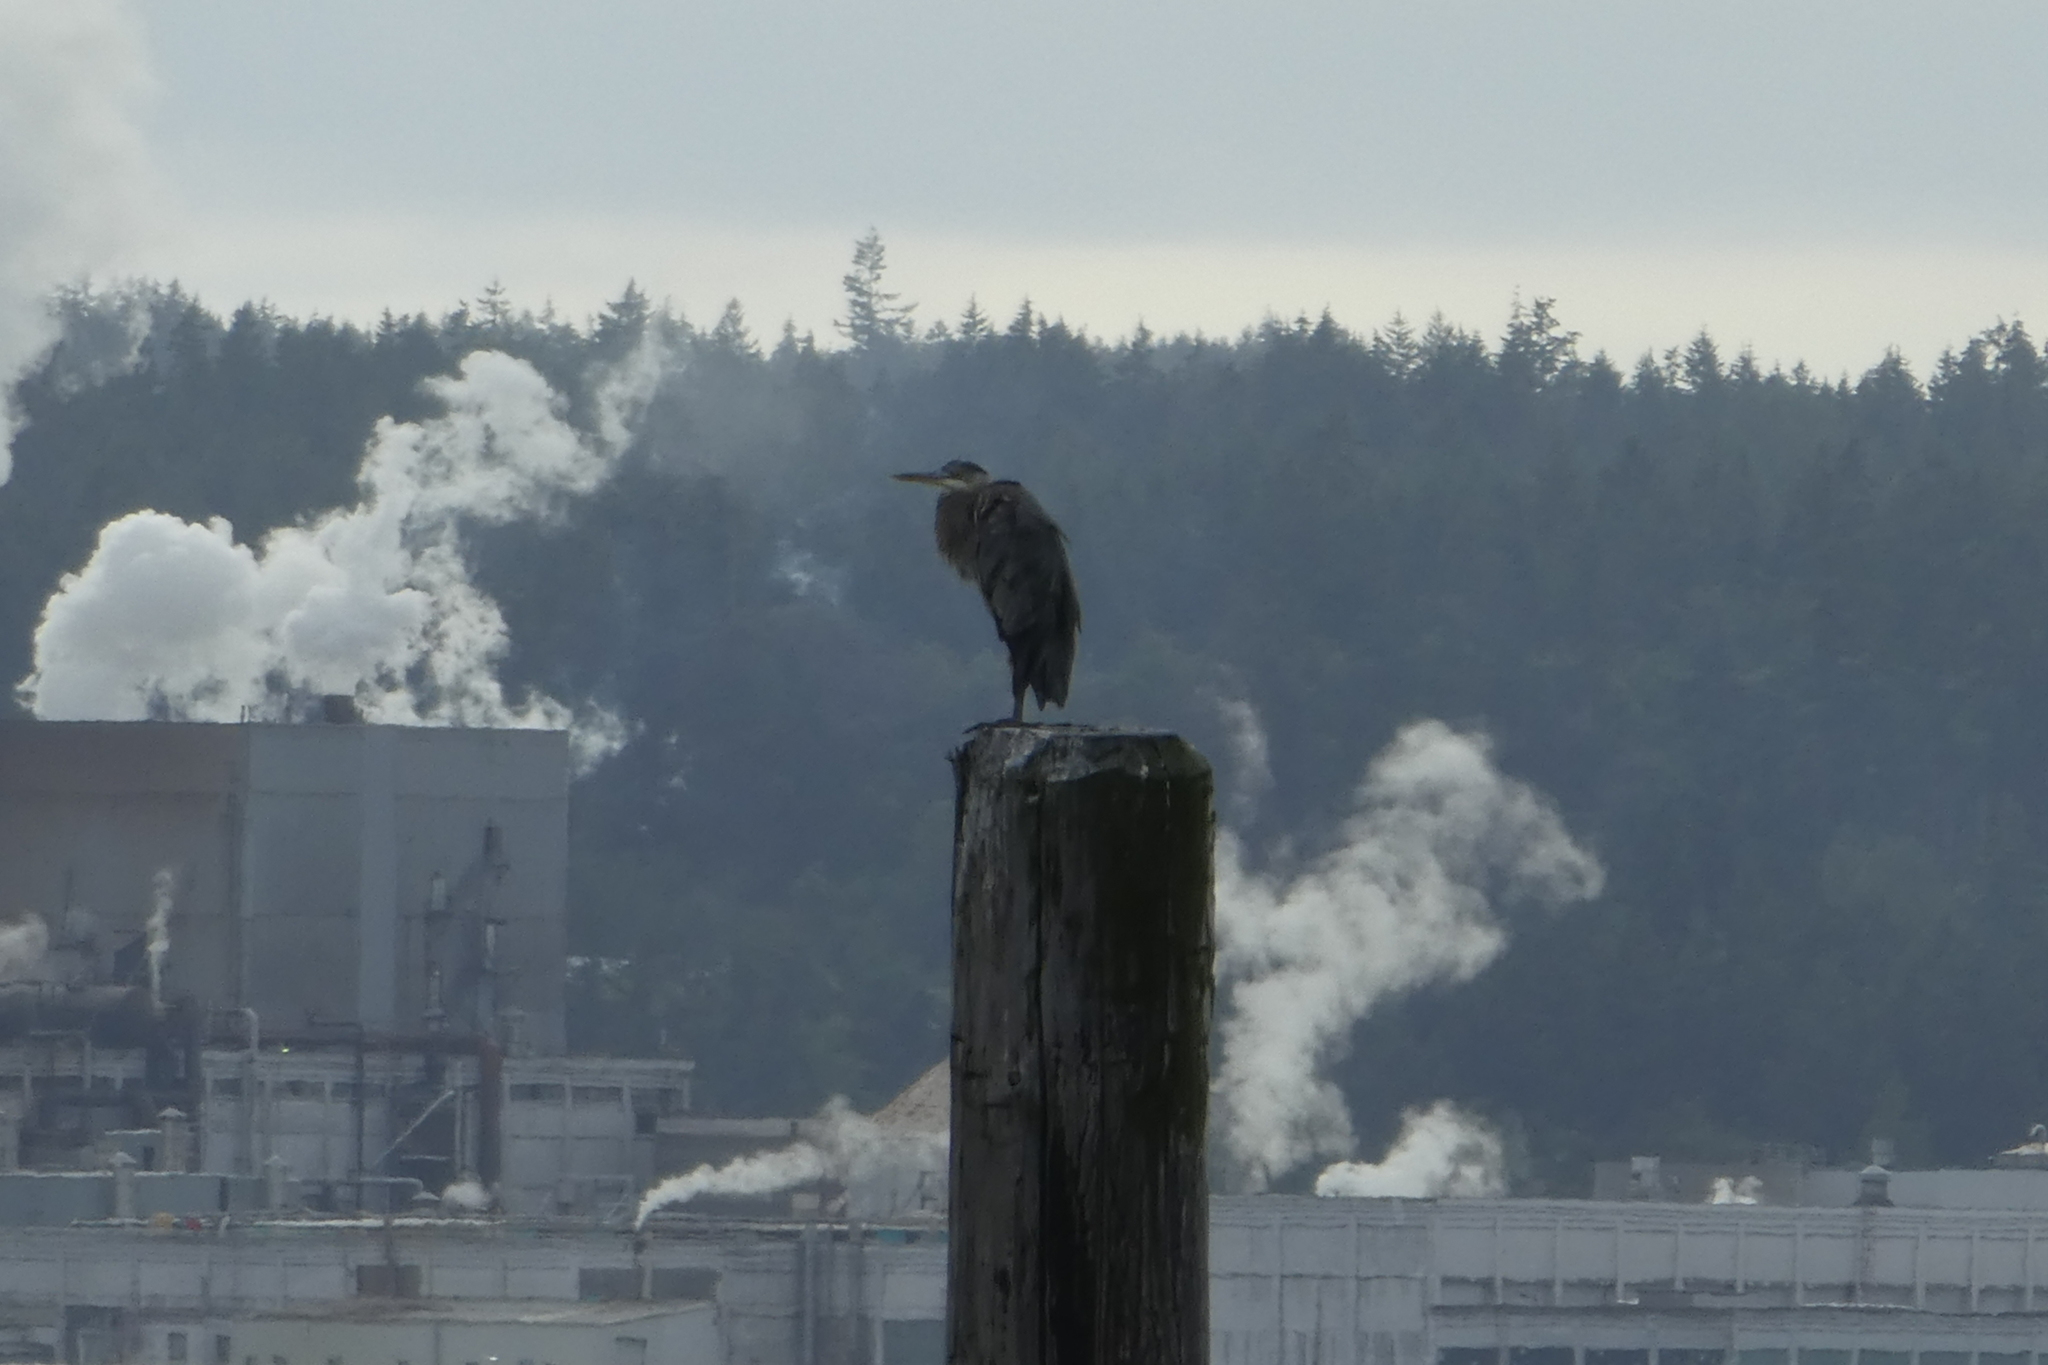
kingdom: Animalia
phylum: Chordata
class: Aves
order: Pelecaniformes
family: Ardeidae
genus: Ardea
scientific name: Ardea herodias
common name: Great blue heron
